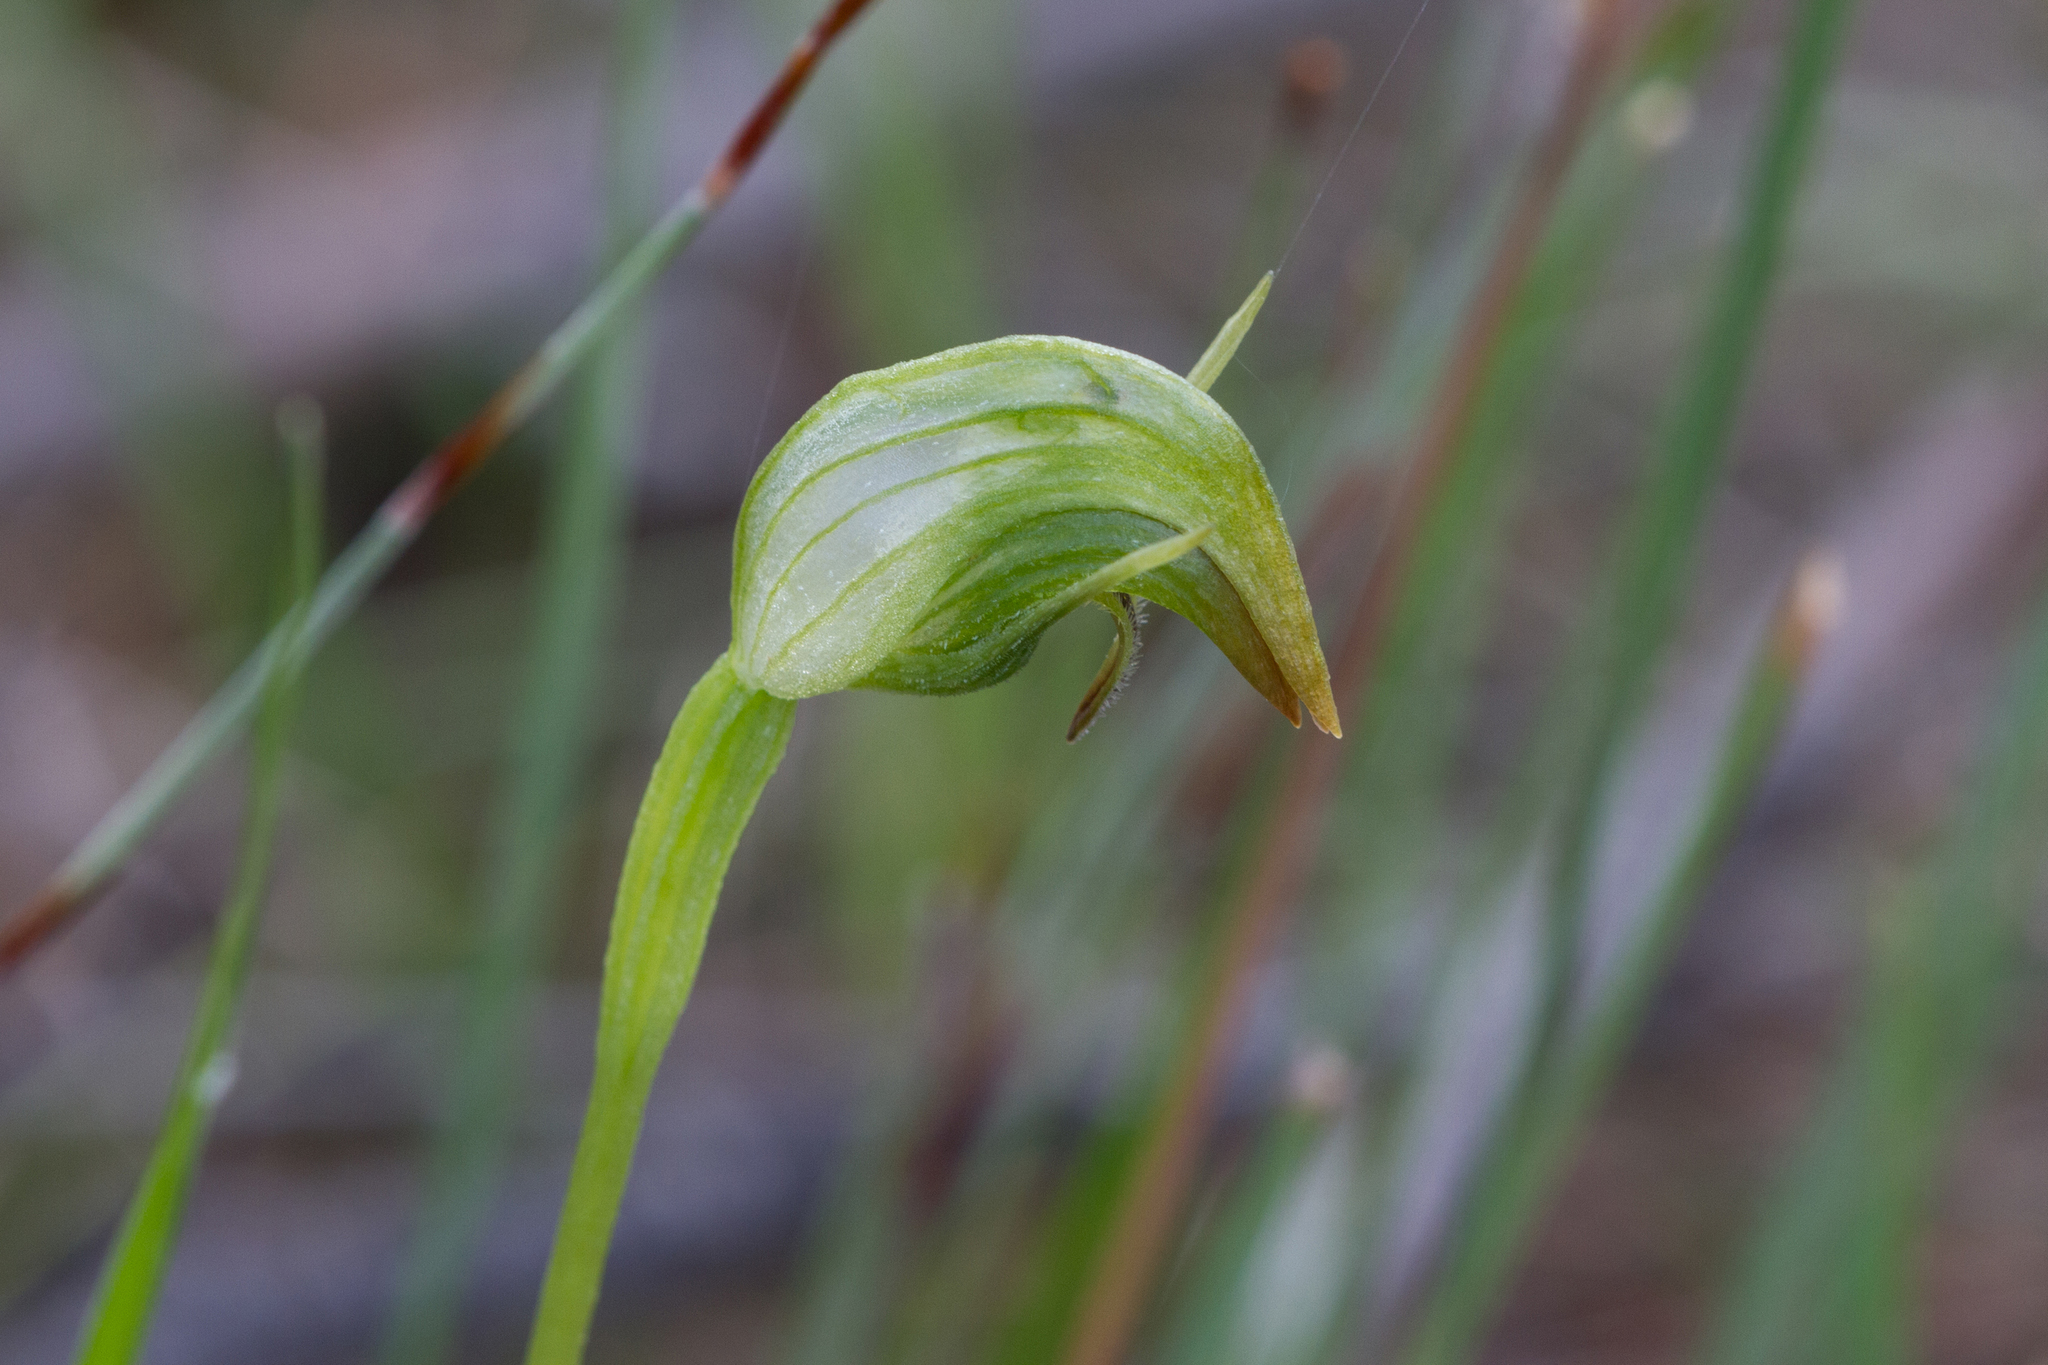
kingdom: Plantae
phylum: Tracheophyta
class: Liliopsida
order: Asparagales
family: Orchidaceae
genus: Pterostylis
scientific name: Pterostylis nutans
